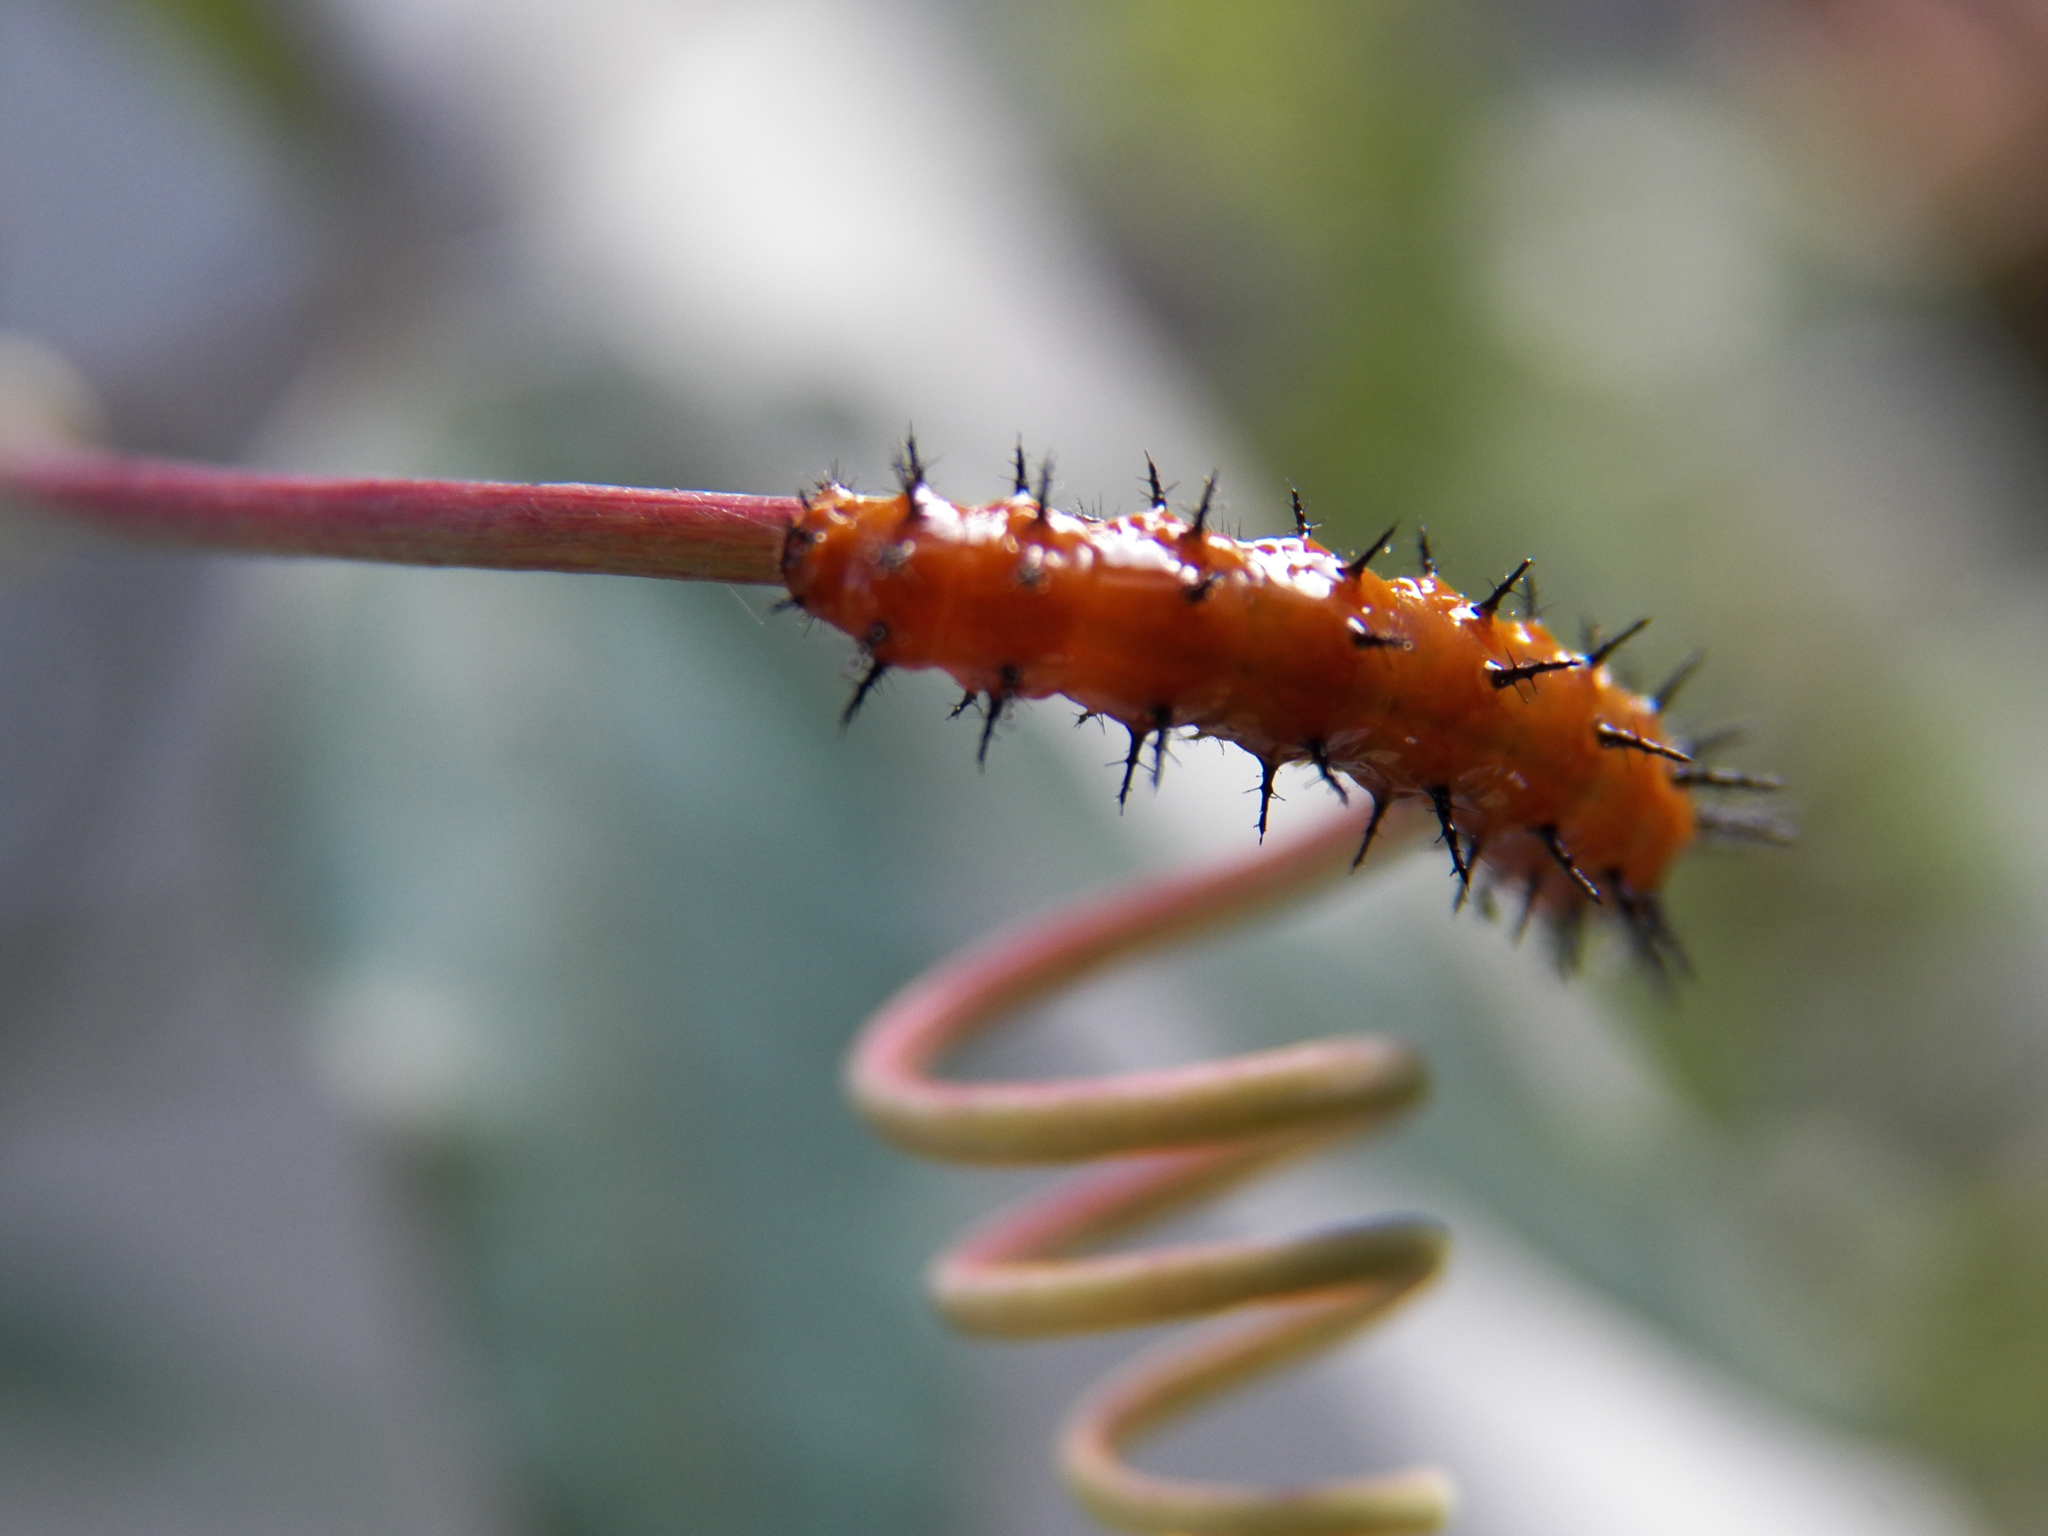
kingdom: Animalia
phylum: Arthropoda
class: Insecta
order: Lepidoptera
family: Nymphalidae
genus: Dione
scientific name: Dione vanillae
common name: Gulf fritillary
